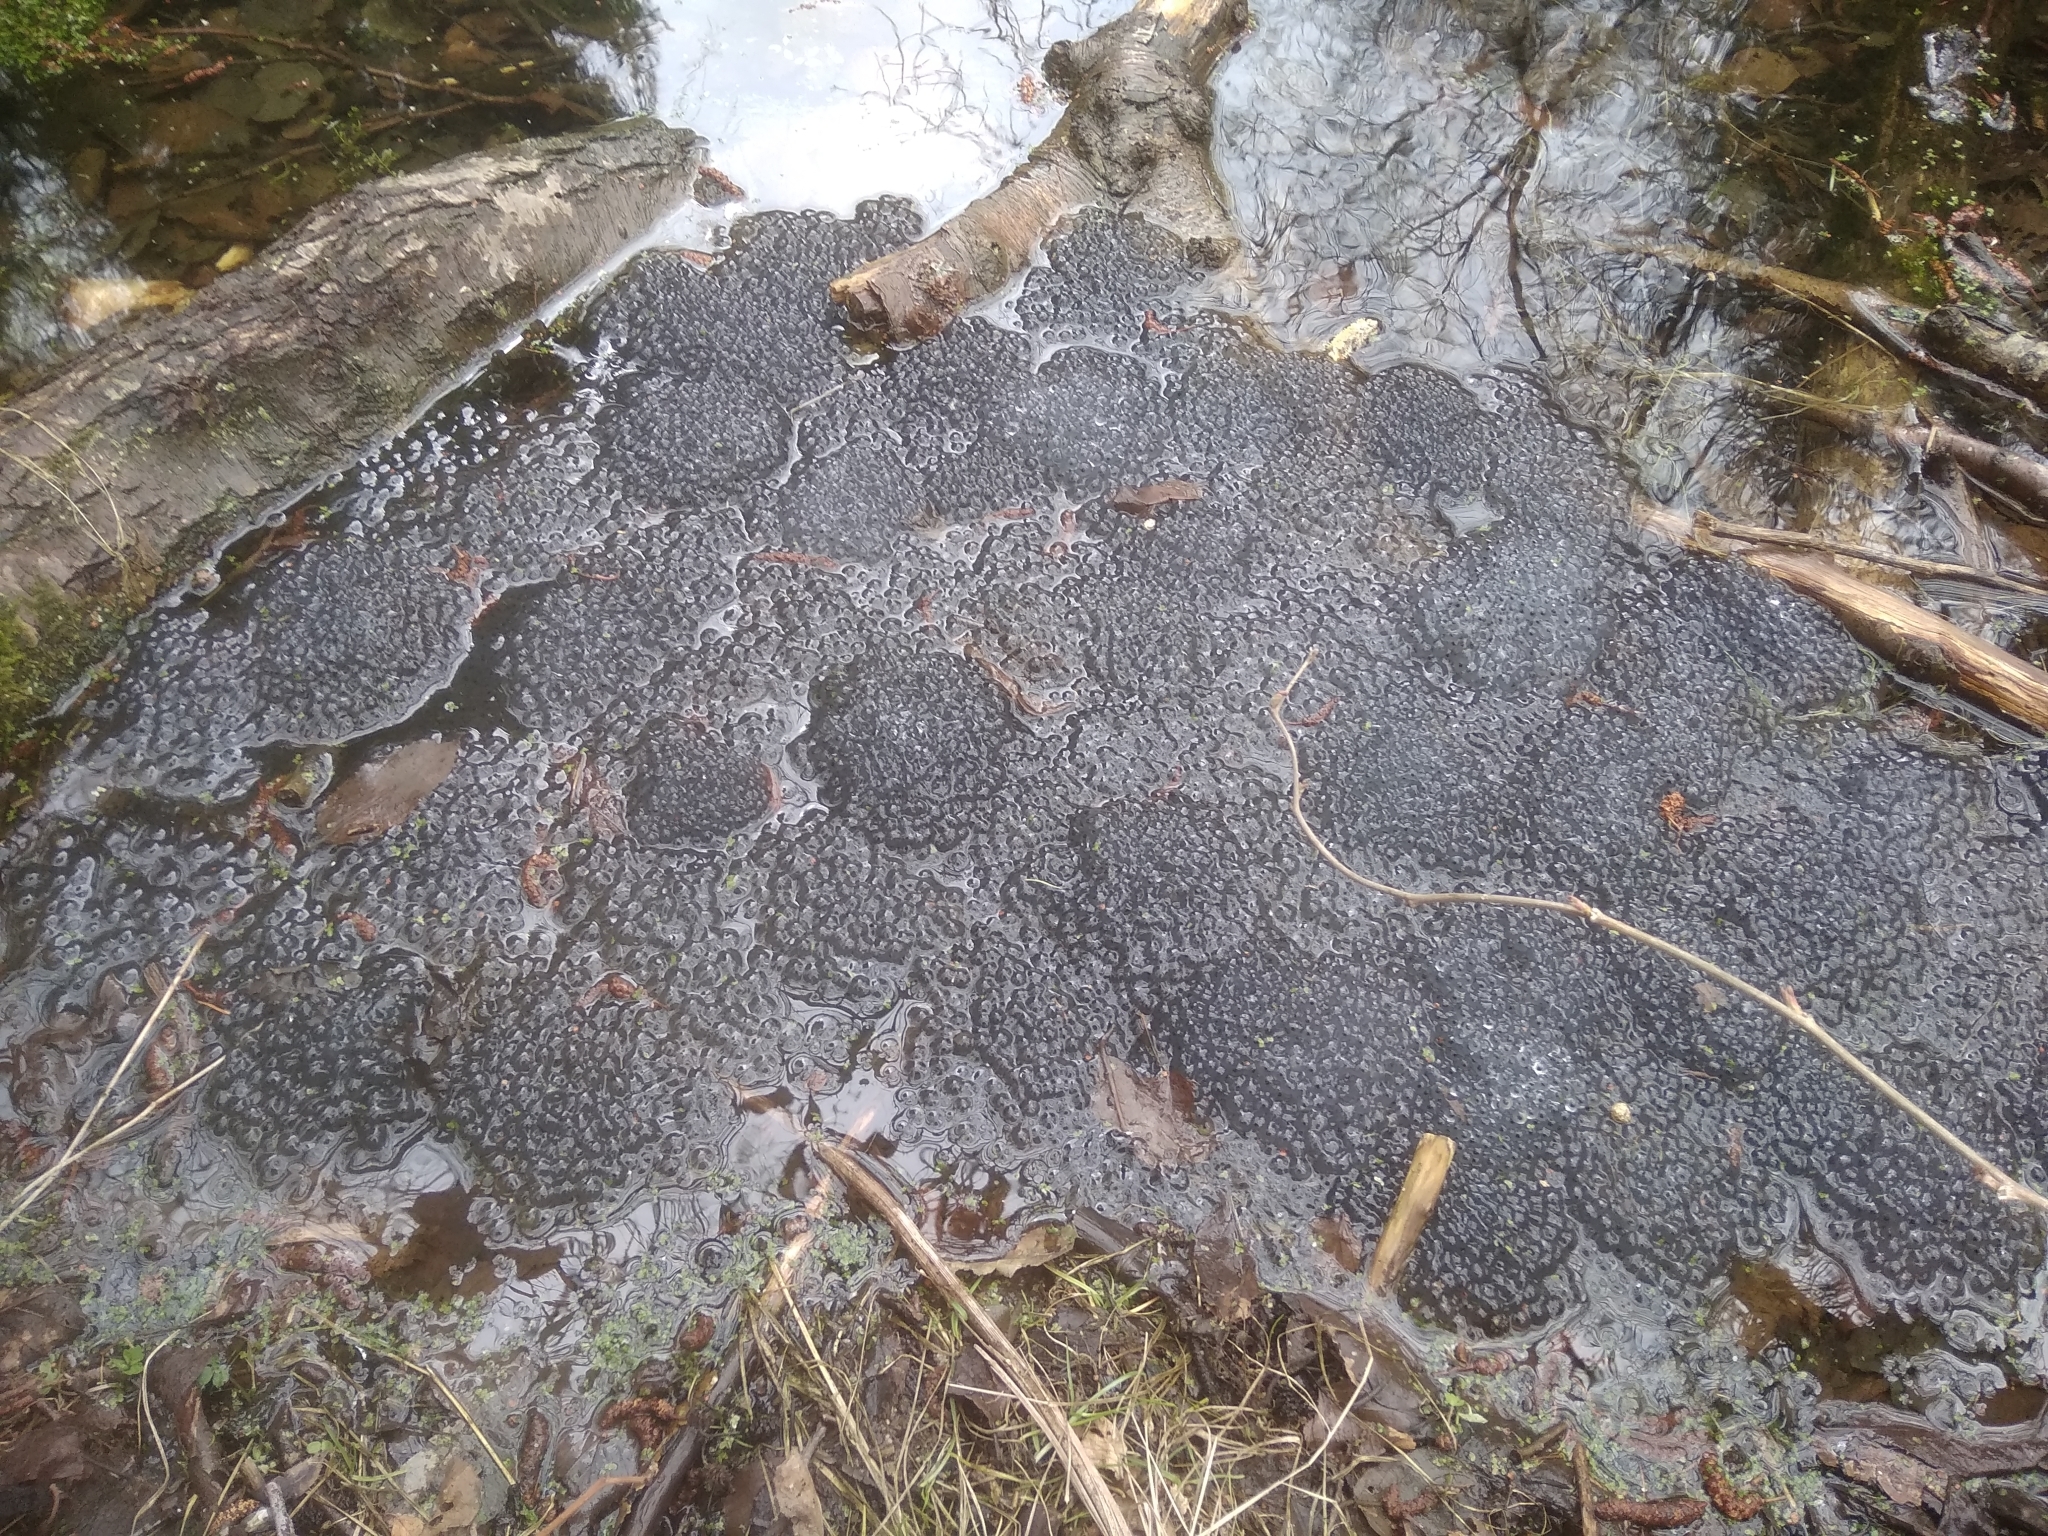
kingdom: Animalia
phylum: Chordata
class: Amphibia
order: Anura
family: Ranidae
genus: Rana
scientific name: Rana temporaria
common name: Common frog
